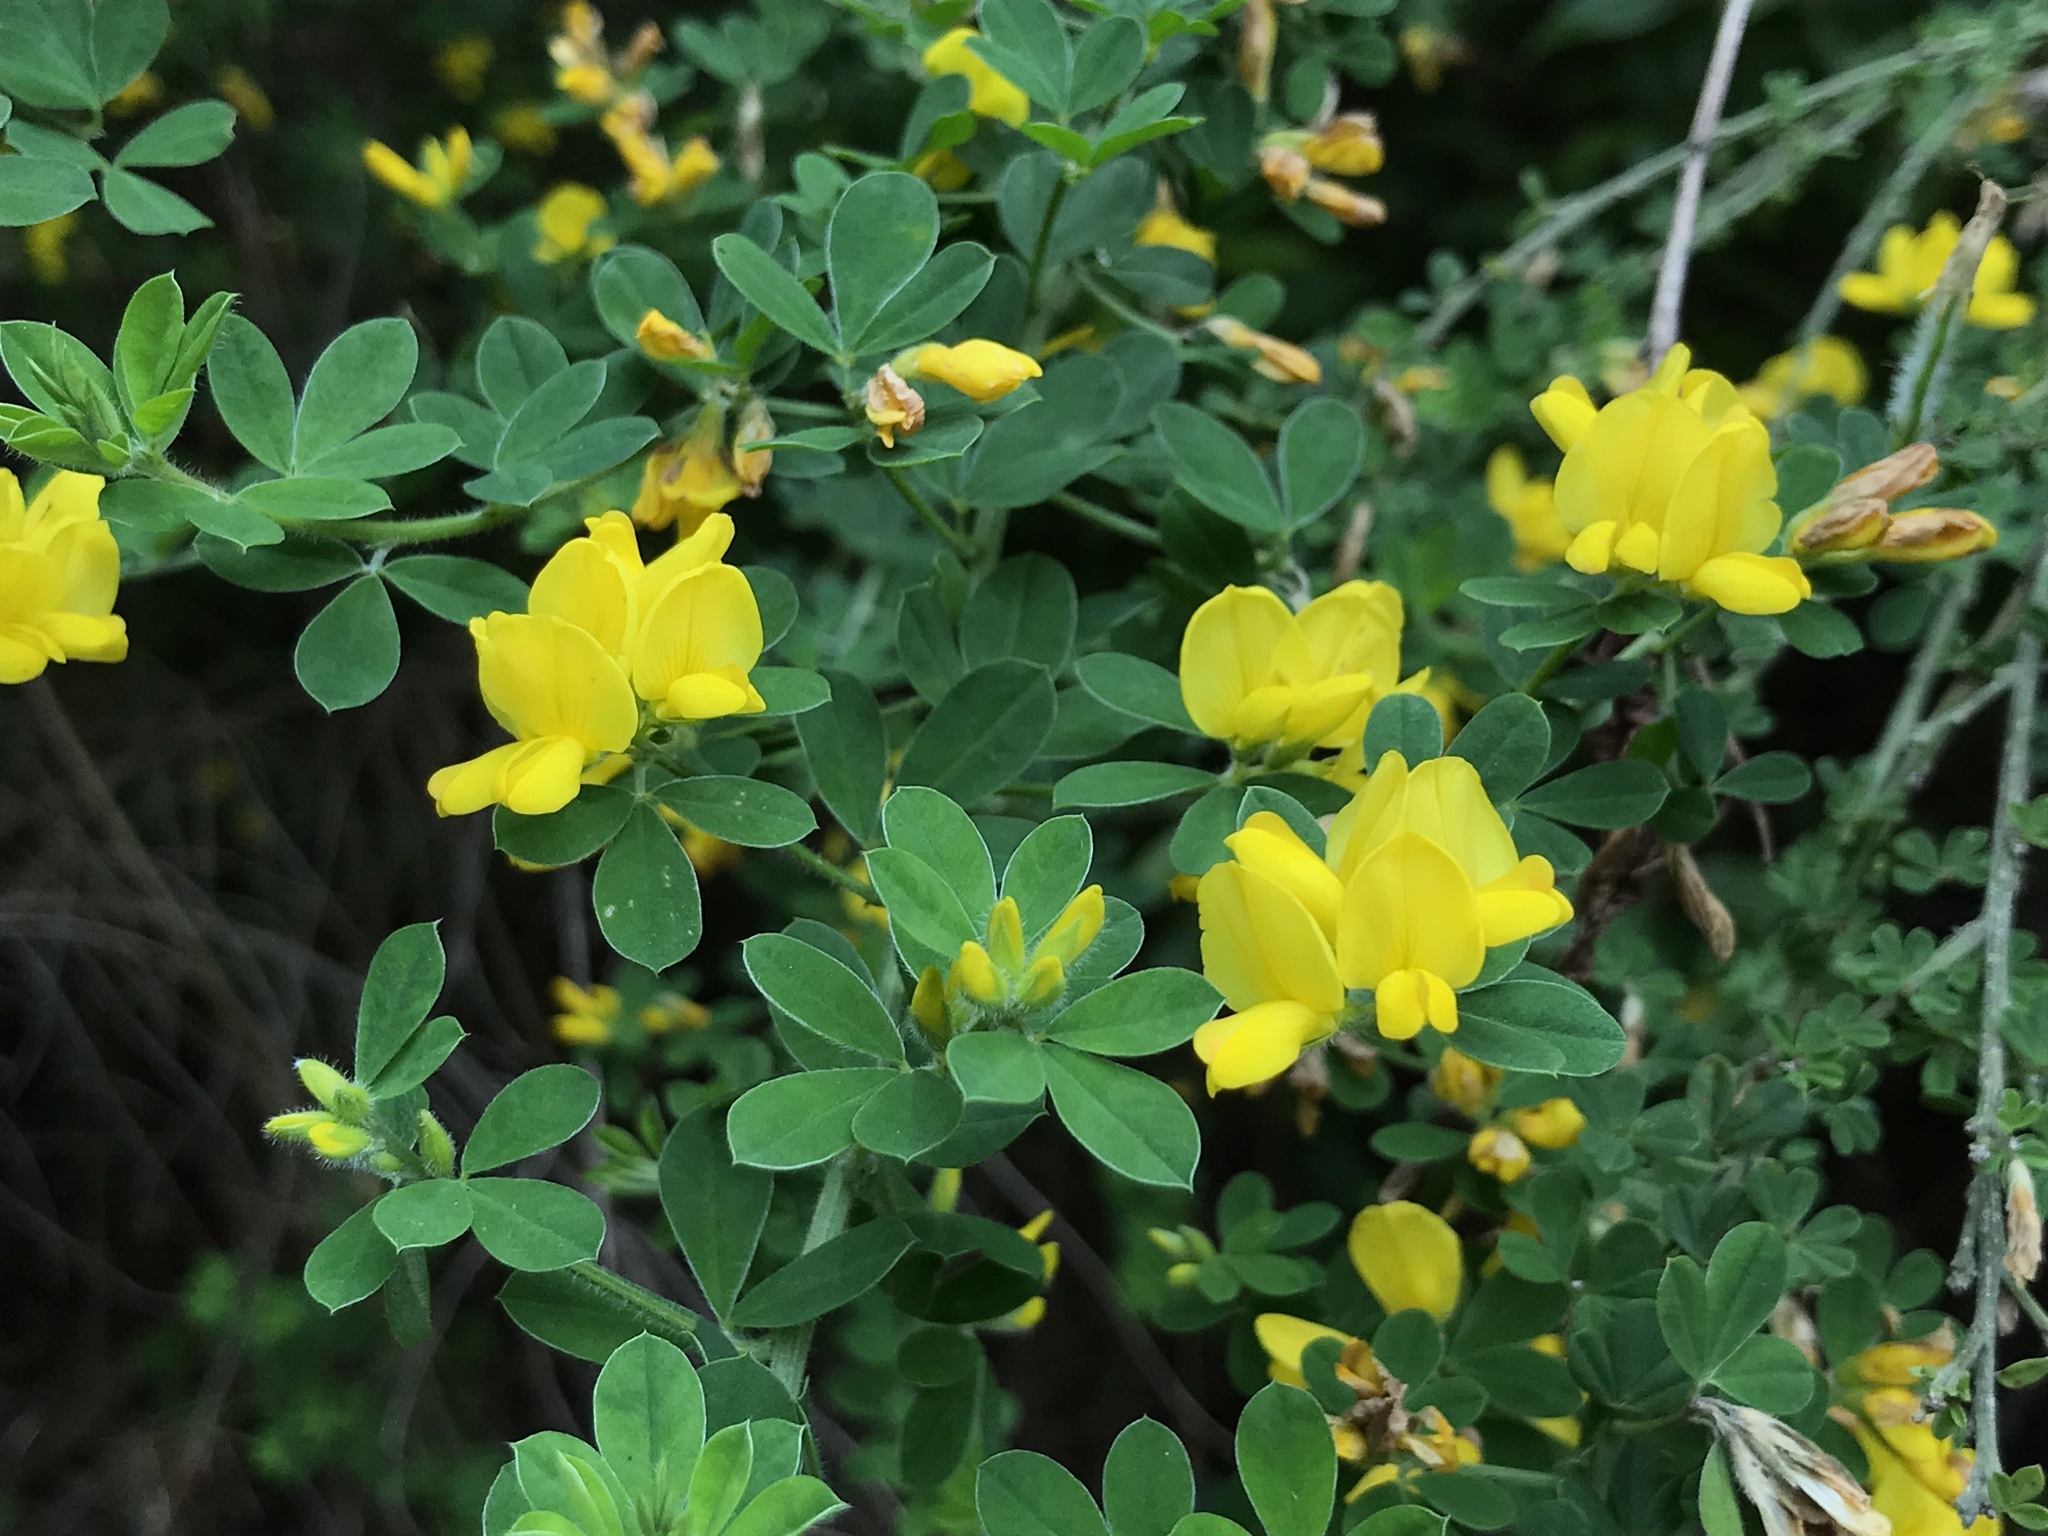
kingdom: Plantae
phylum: Tracheophyta
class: Magnoliopsida
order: Fabales
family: Fabaceae
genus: Genista
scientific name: Genista monspessulana
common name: Montpellier broom
